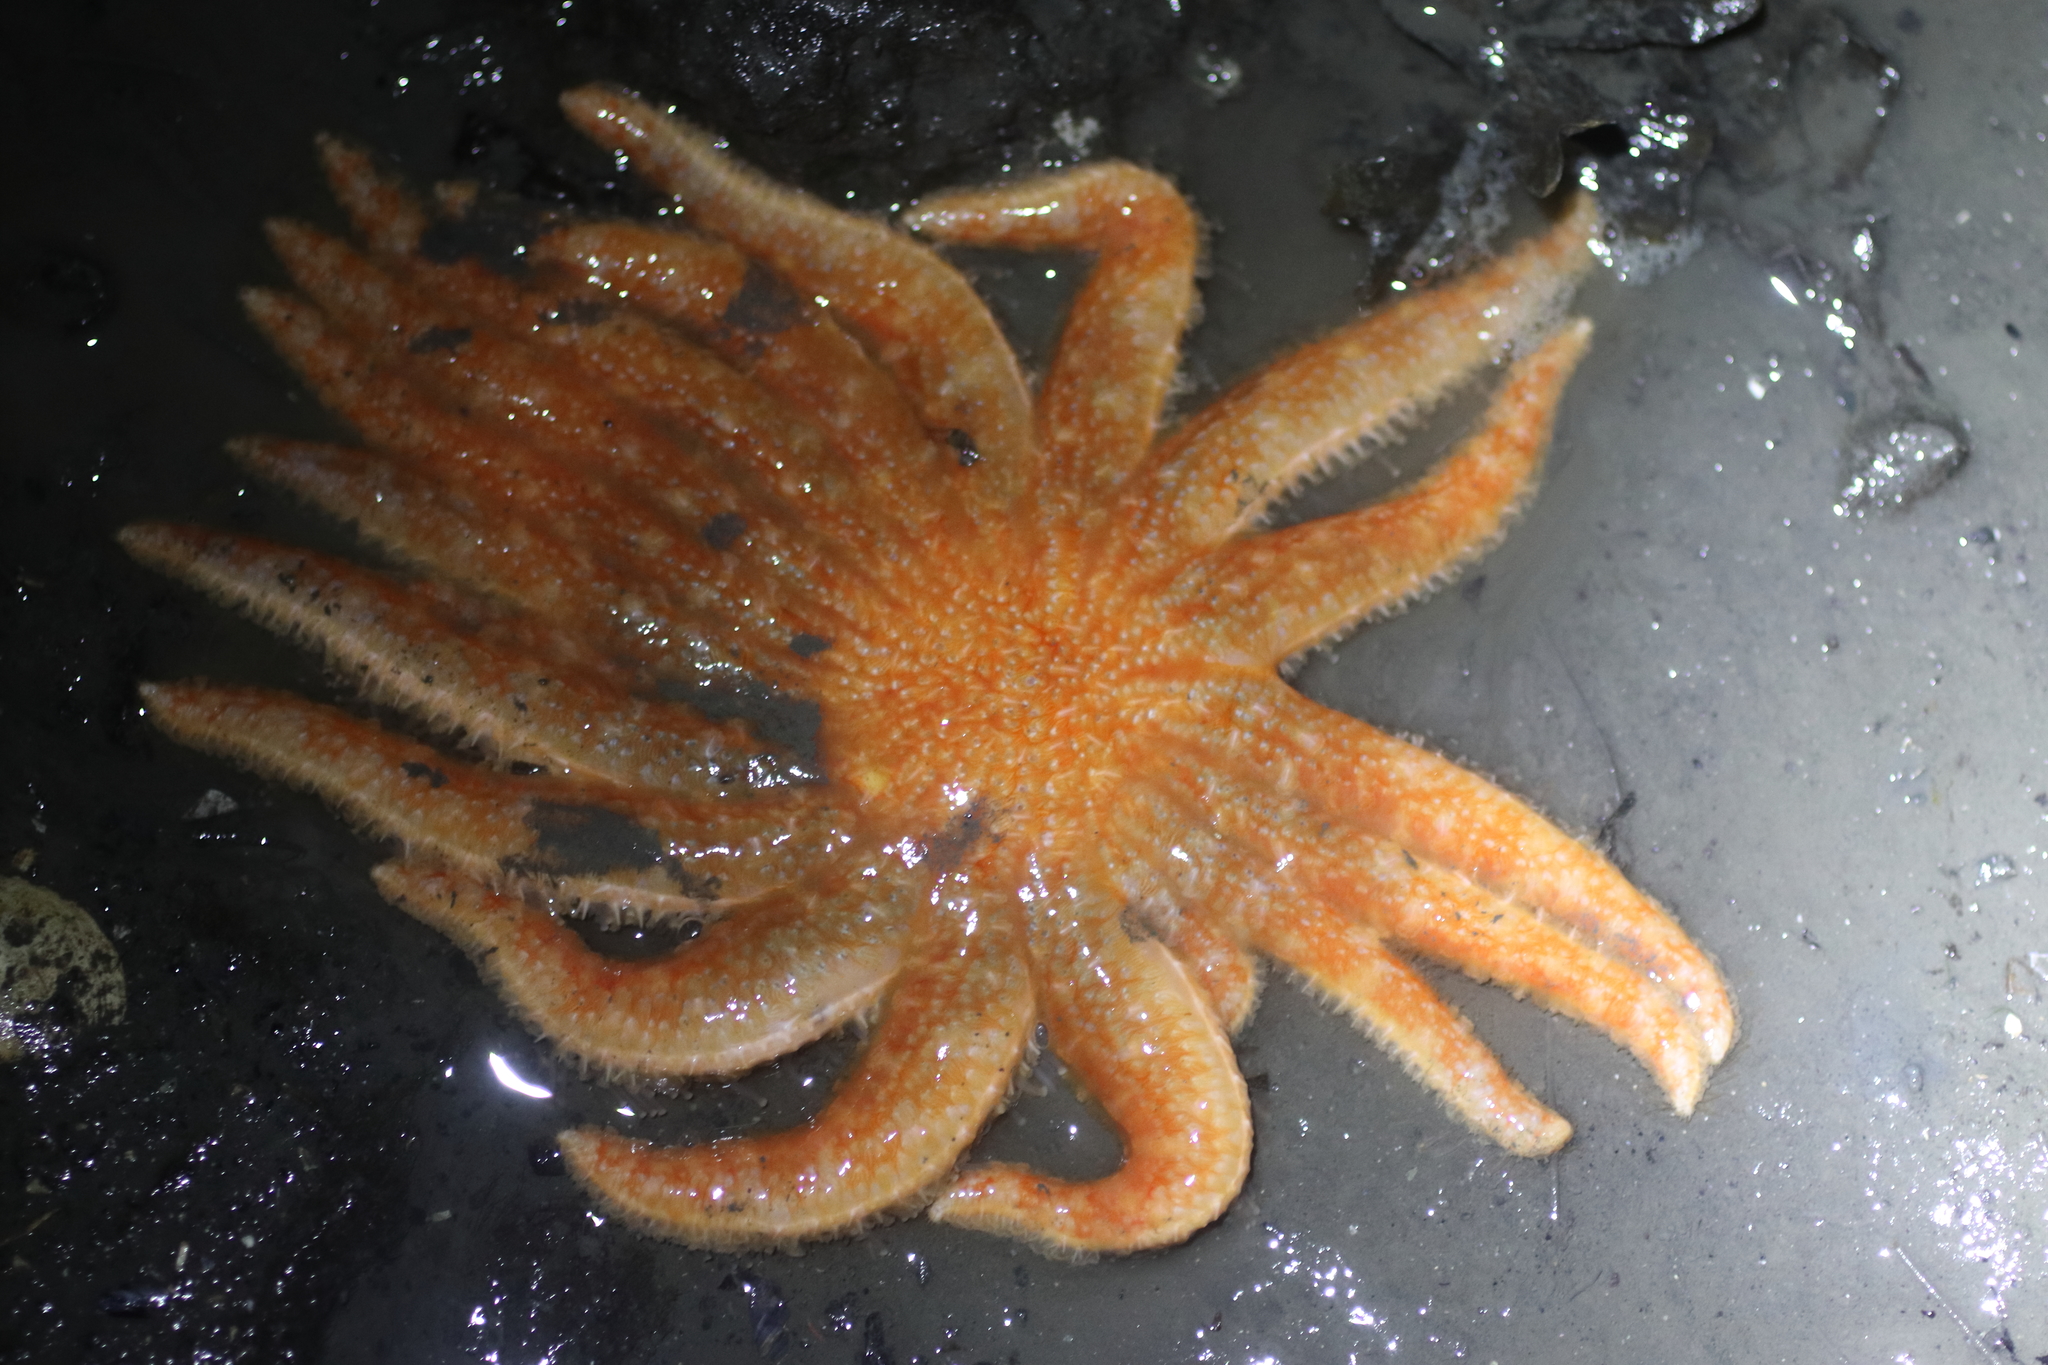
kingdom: Animalia
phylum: Echinodermata
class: Asteroidea
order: Forcipulatida
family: Asteriidae
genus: Pycnopodia
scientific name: Pycnopodia helianthoides
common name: Rag mop
